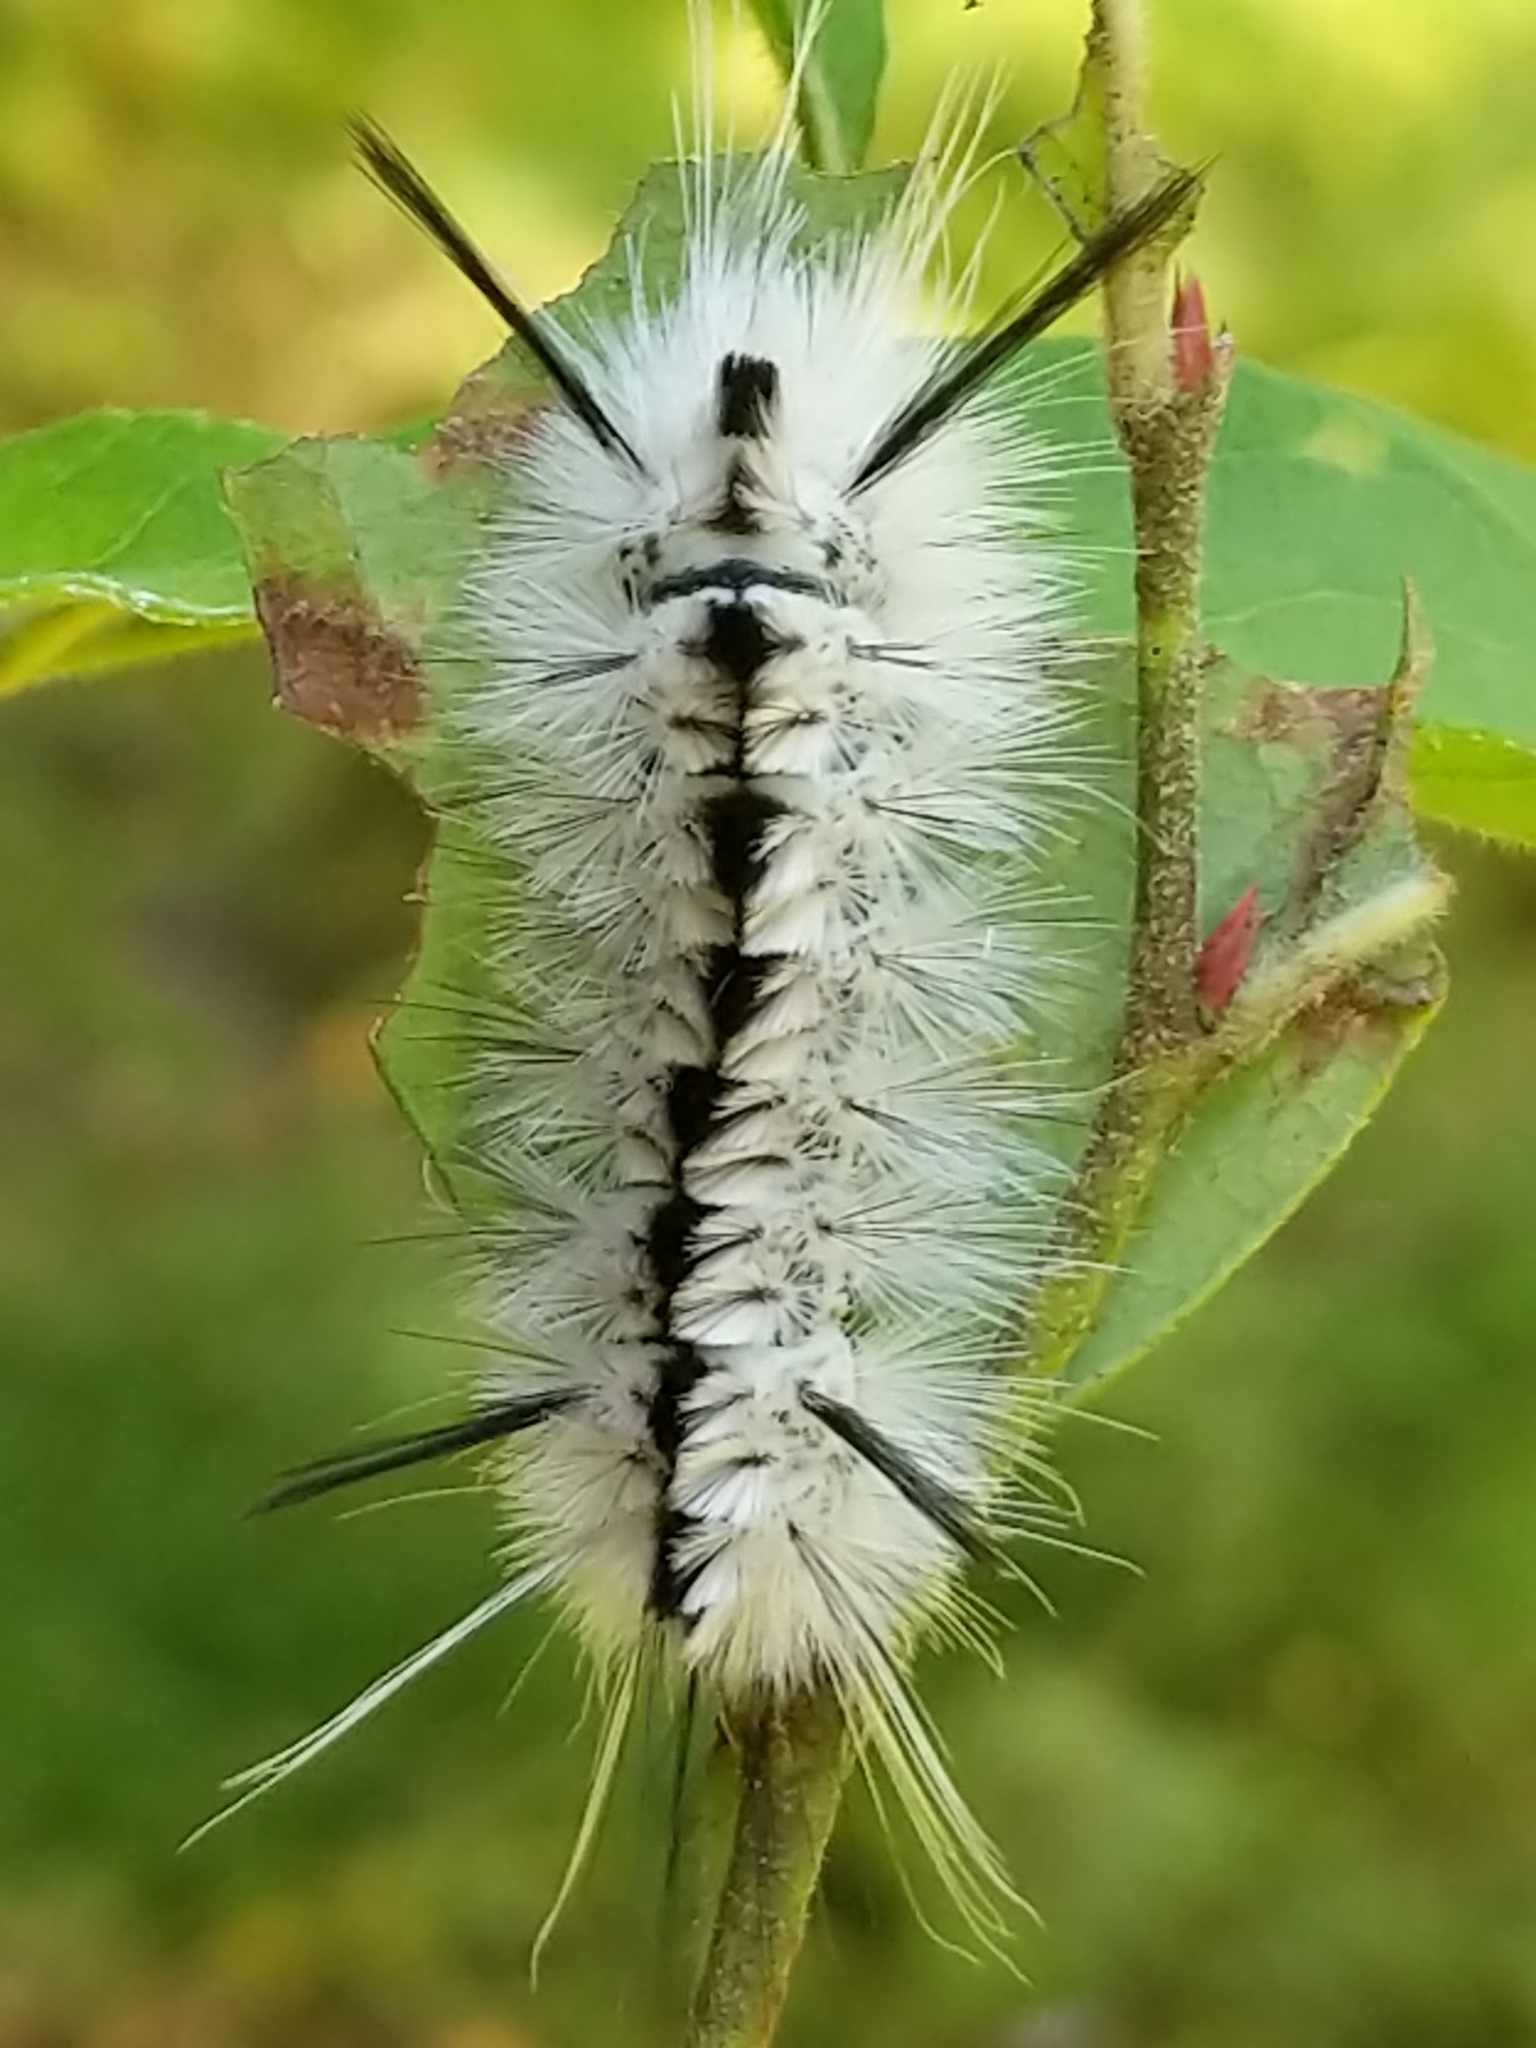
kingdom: Animalia
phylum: Arthropoda
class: Insecta
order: Lepidoptera
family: Erebidae
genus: Lophocampa
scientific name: Lophocampa caryae
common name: Hickory tussock moth
